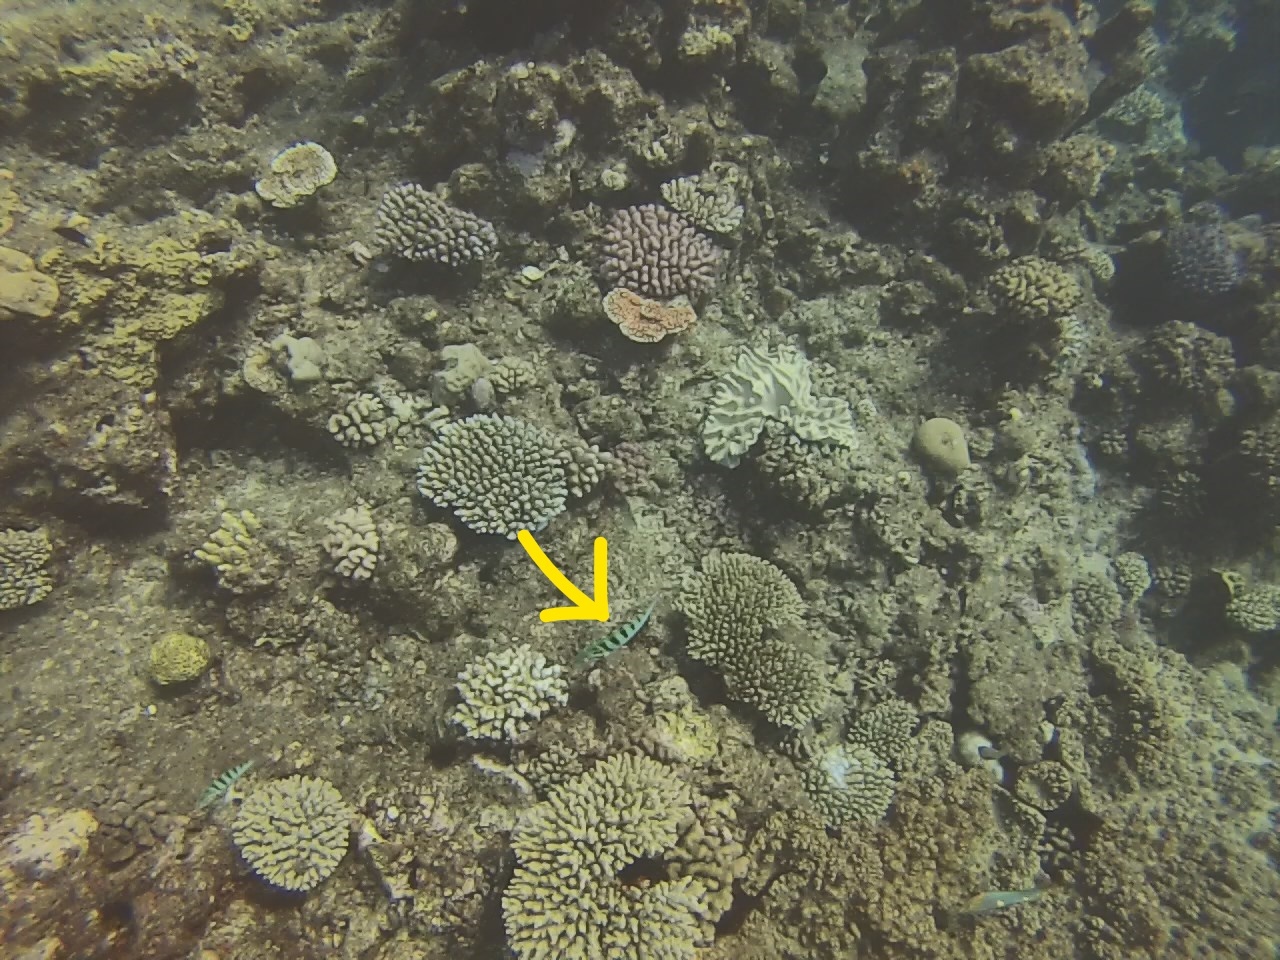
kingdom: Animalia
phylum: Chordata
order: Perciformes
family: Labridae
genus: Thalassoma
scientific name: Thalassoma hardwicke
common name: Sixbar wrasse
